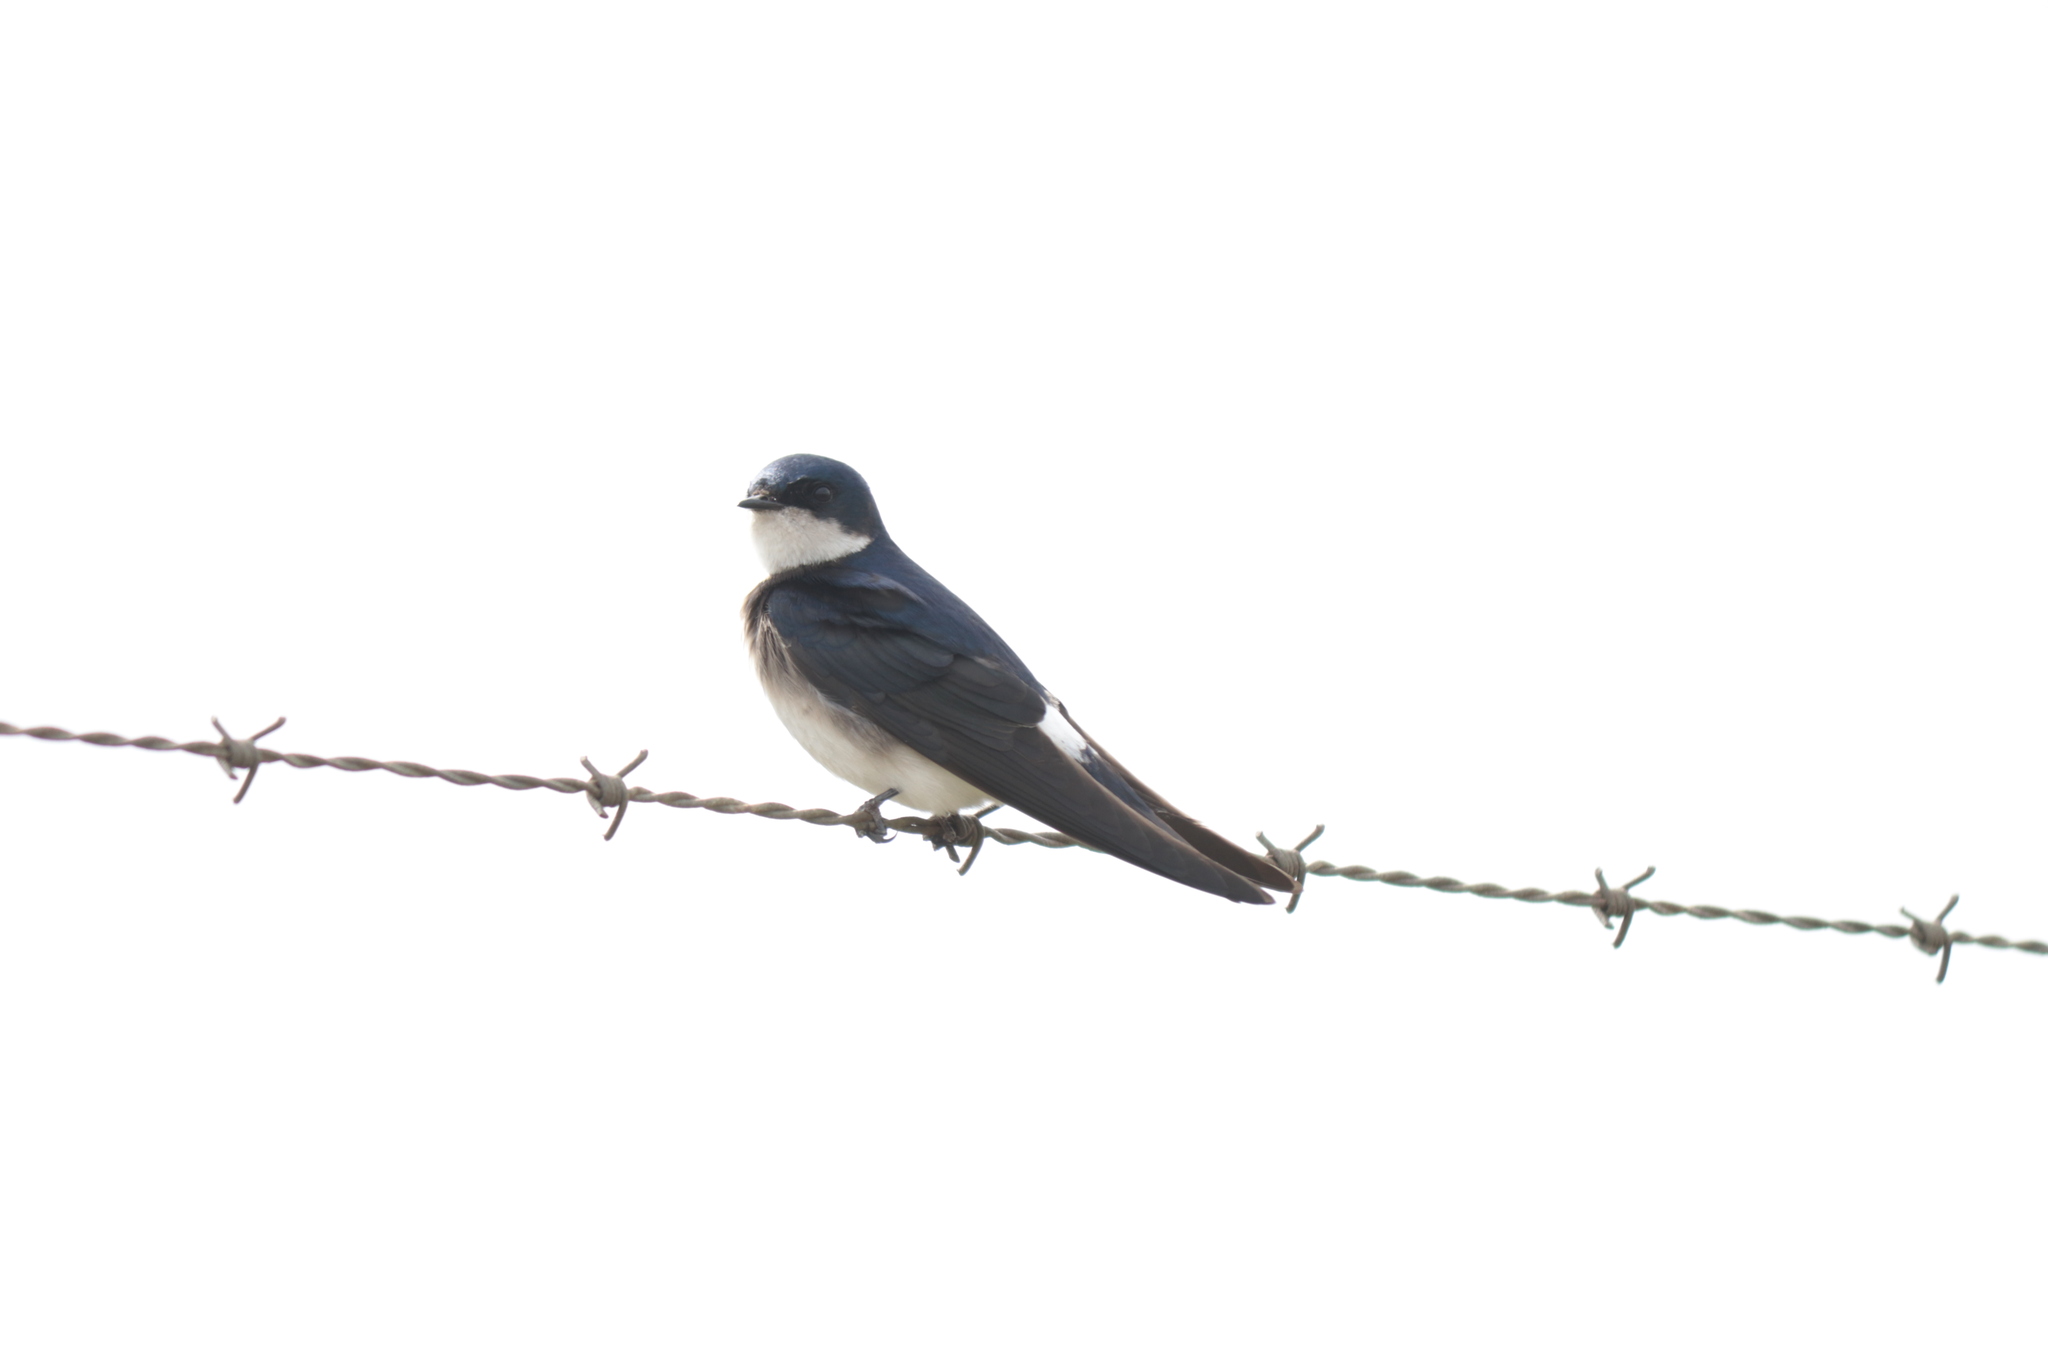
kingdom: Animalia
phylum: Chordata
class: Aves
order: Passeriformes
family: Hirundinidae
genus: Tachycineta
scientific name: Tachycineta leucopyga
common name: Chilean swallow
